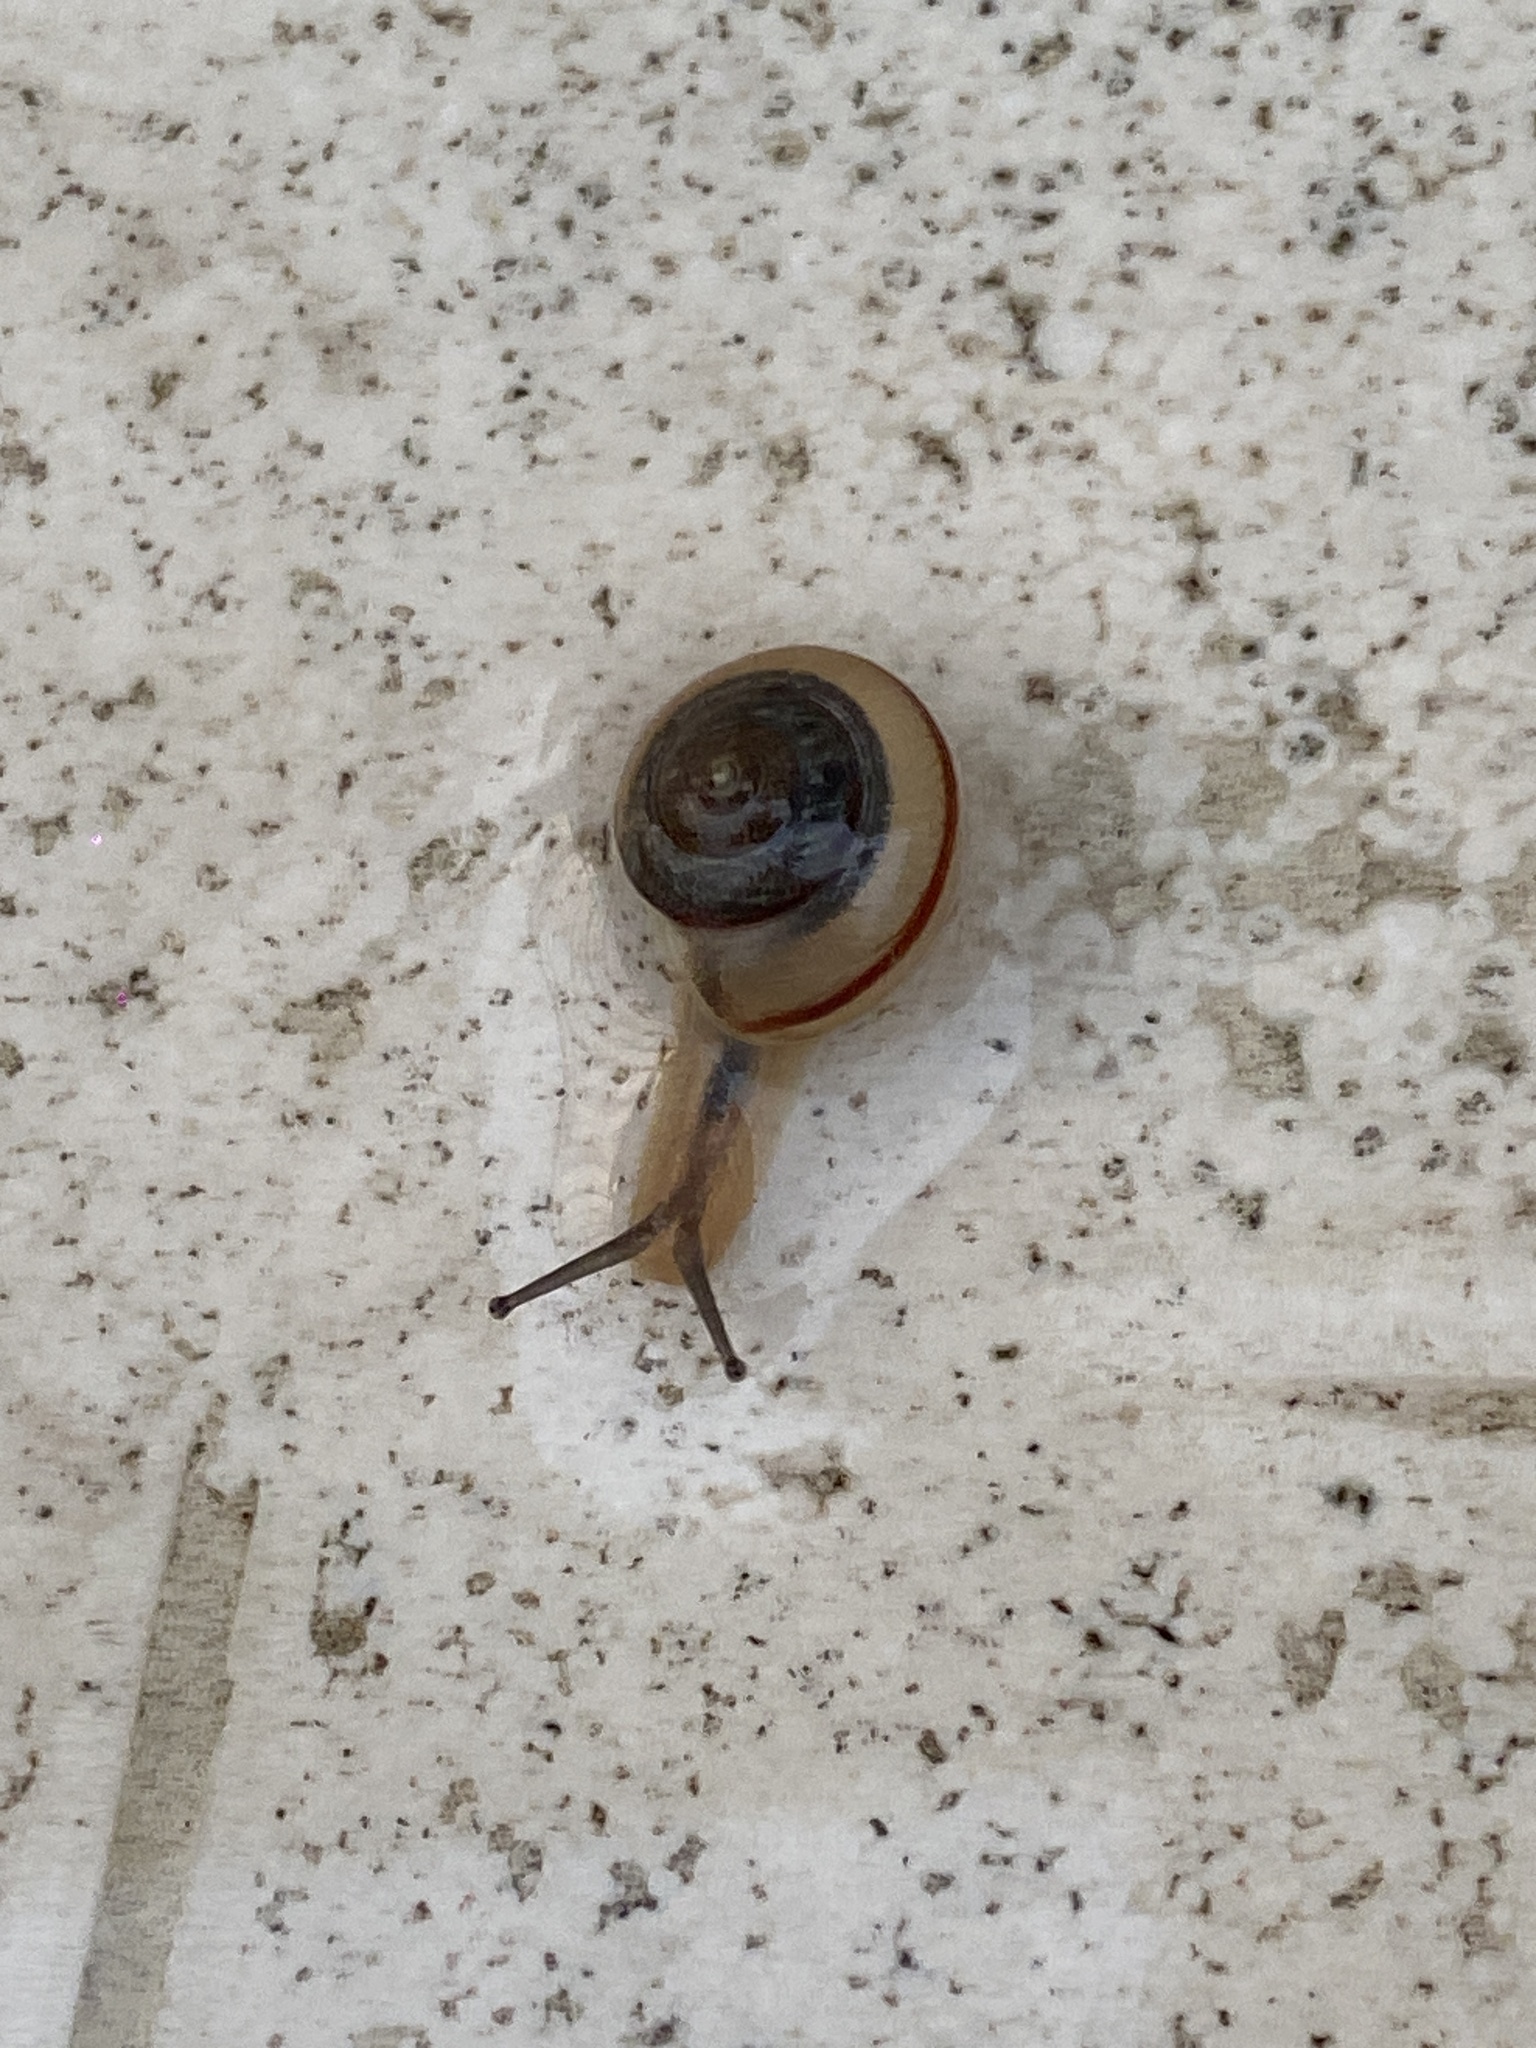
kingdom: Animalia
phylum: Mollusca
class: Gastropoda
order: Stylommatophora
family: Camaenidae
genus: Bradybaena
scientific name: Bradybaena similaris
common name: Asian trampsnail
